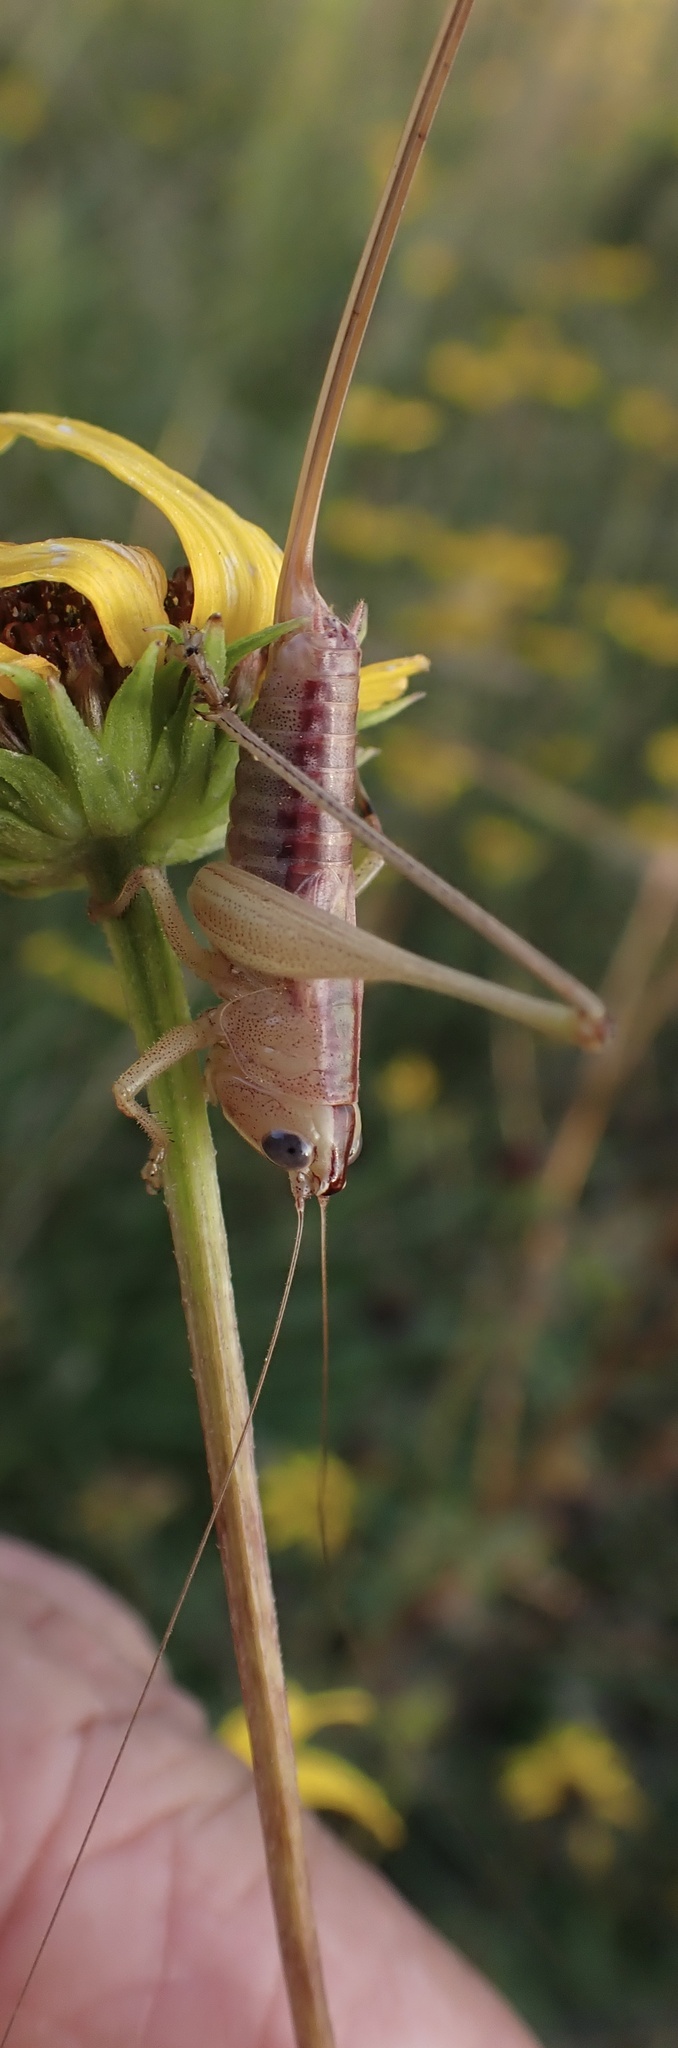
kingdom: Animalia
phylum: Arthropoda
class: Insecta
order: Orthoptera
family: Tettigoniidae
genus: Conocephalus
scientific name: Conocephalus strictus
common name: Straight-lanced katydid
